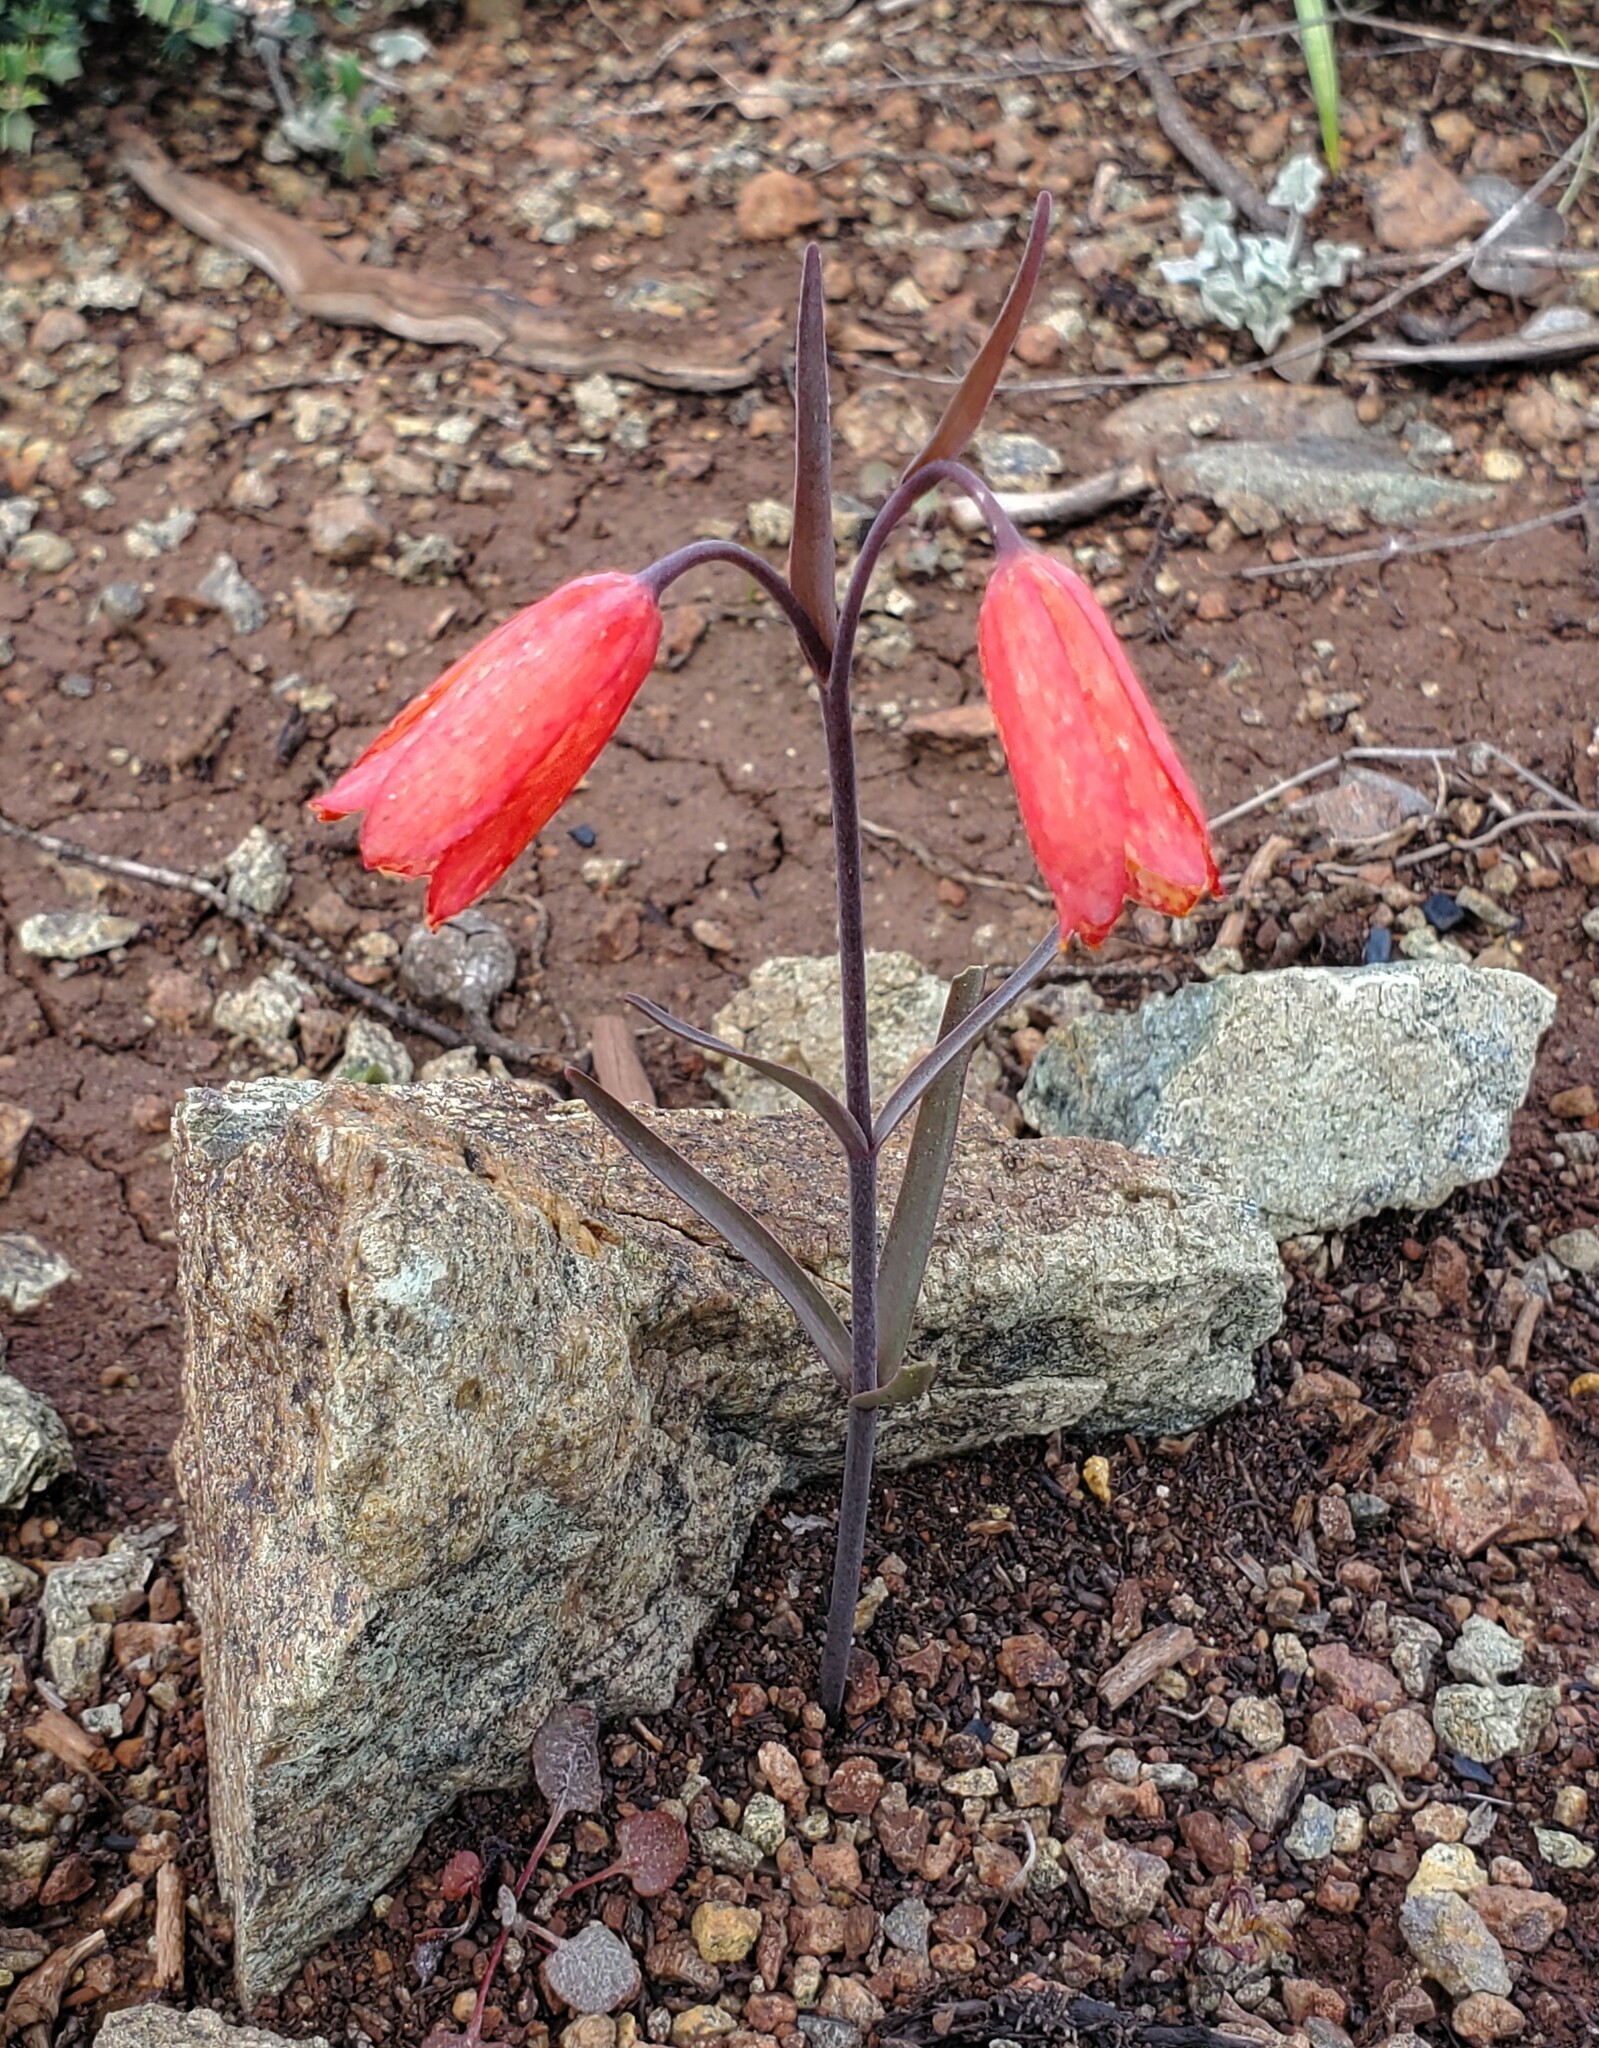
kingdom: Plantae
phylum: Tracheophyta
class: Liliopsida
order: Liliales
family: Liliaceae
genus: Fritillaria
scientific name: Fritillaria recurva
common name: Scarlet fritillary
